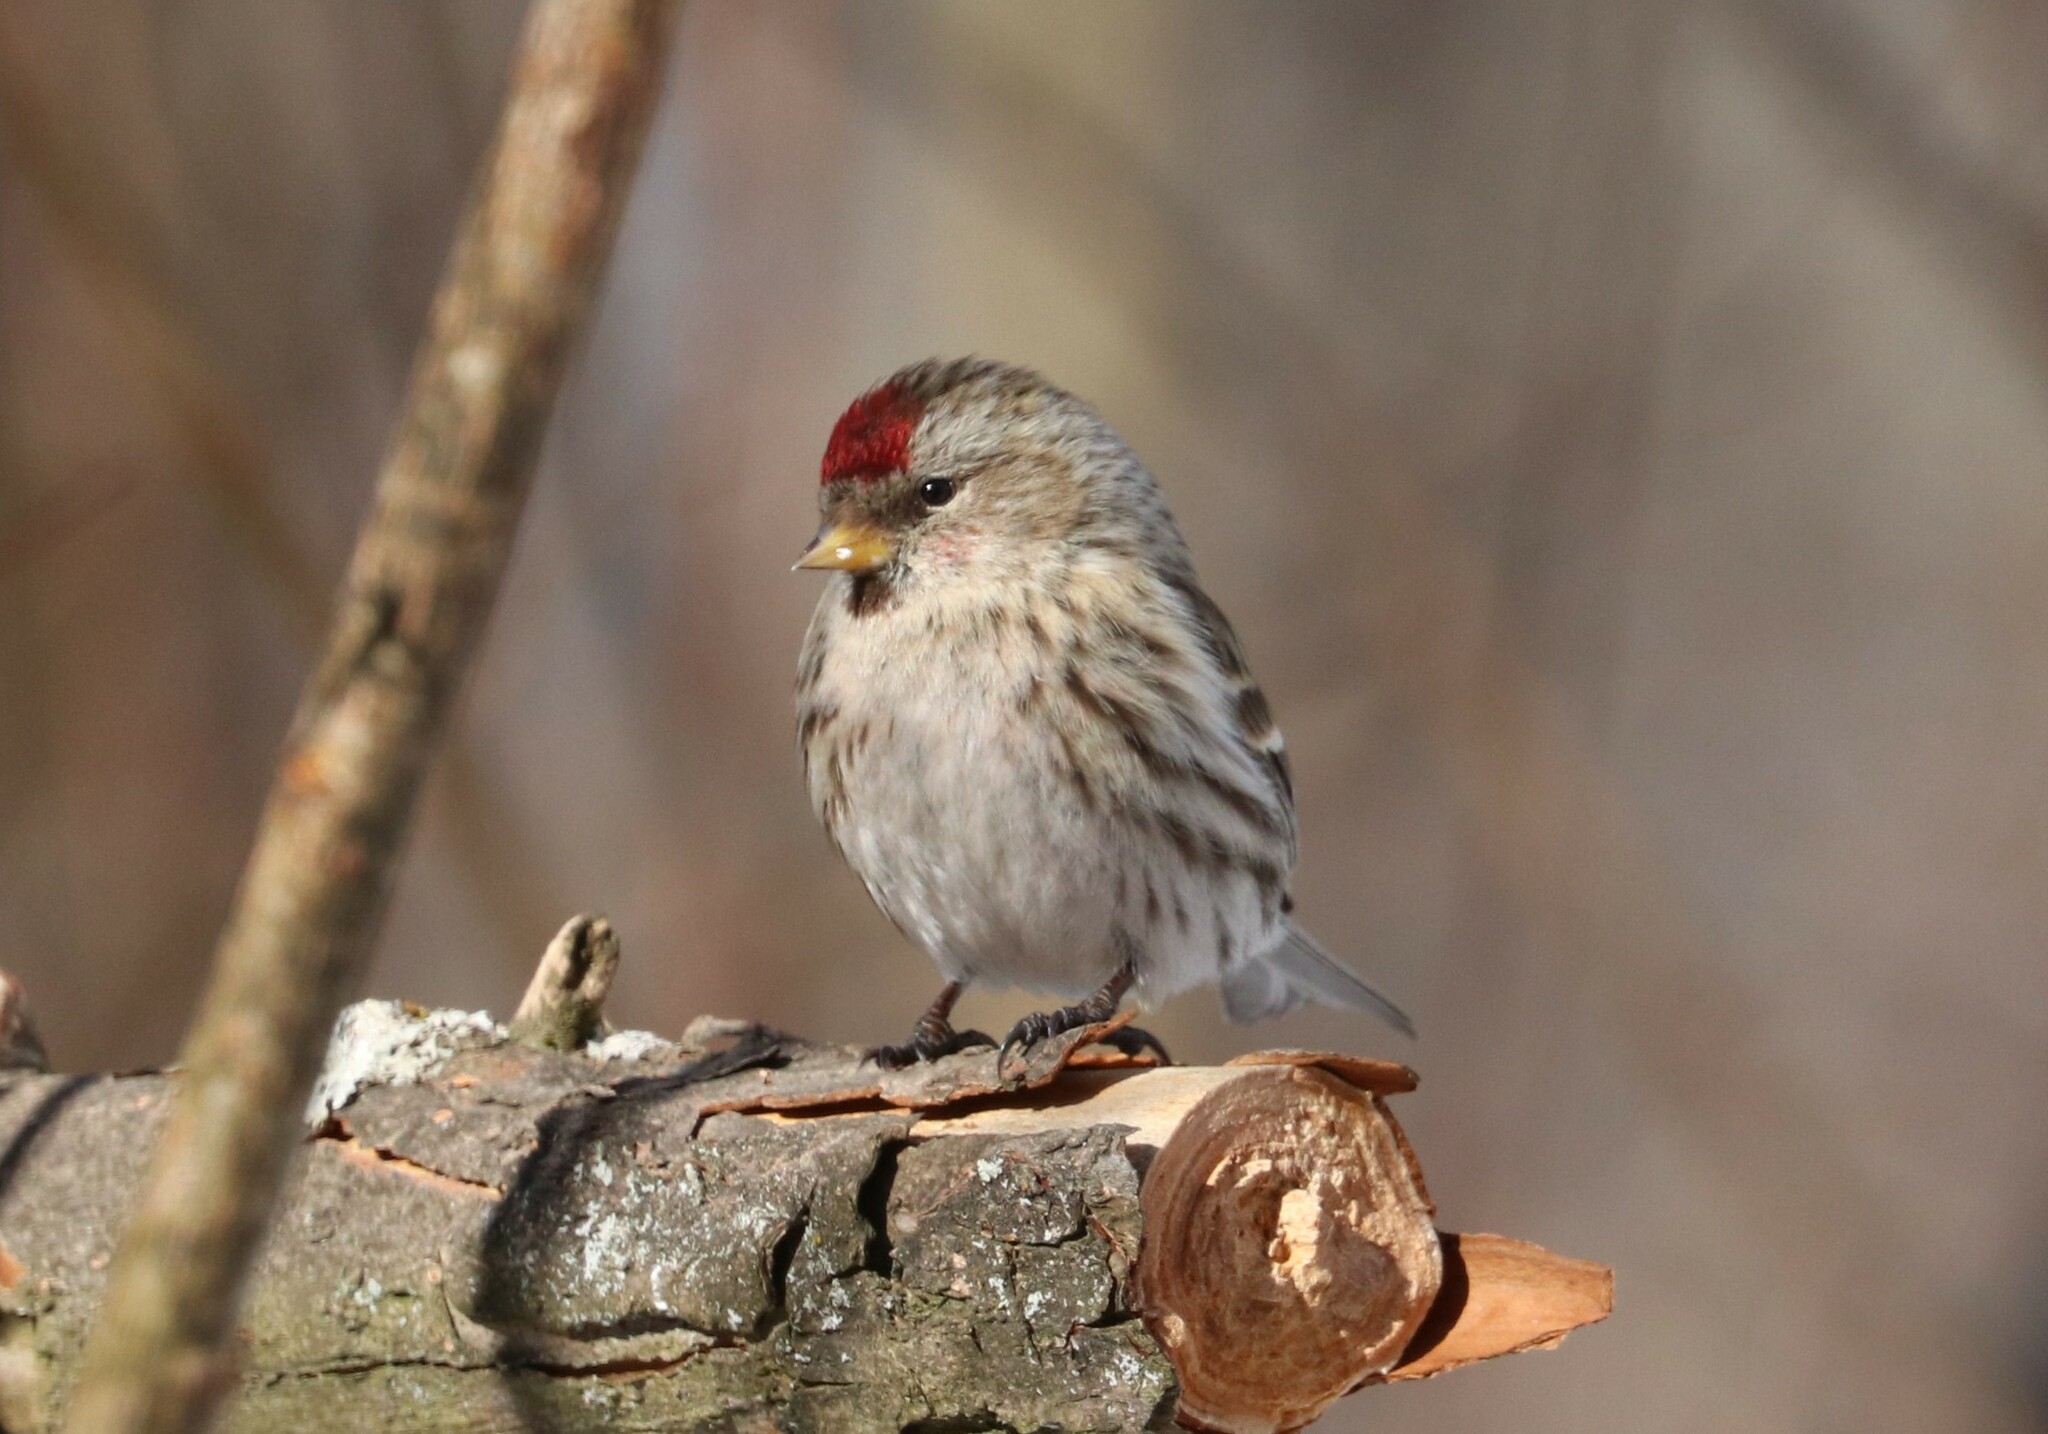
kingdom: Animalia
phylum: Chordata
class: Aves
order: Passeriformes
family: Fringillidae
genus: Acanthis
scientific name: Acanthis flammea
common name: Common redpoll
